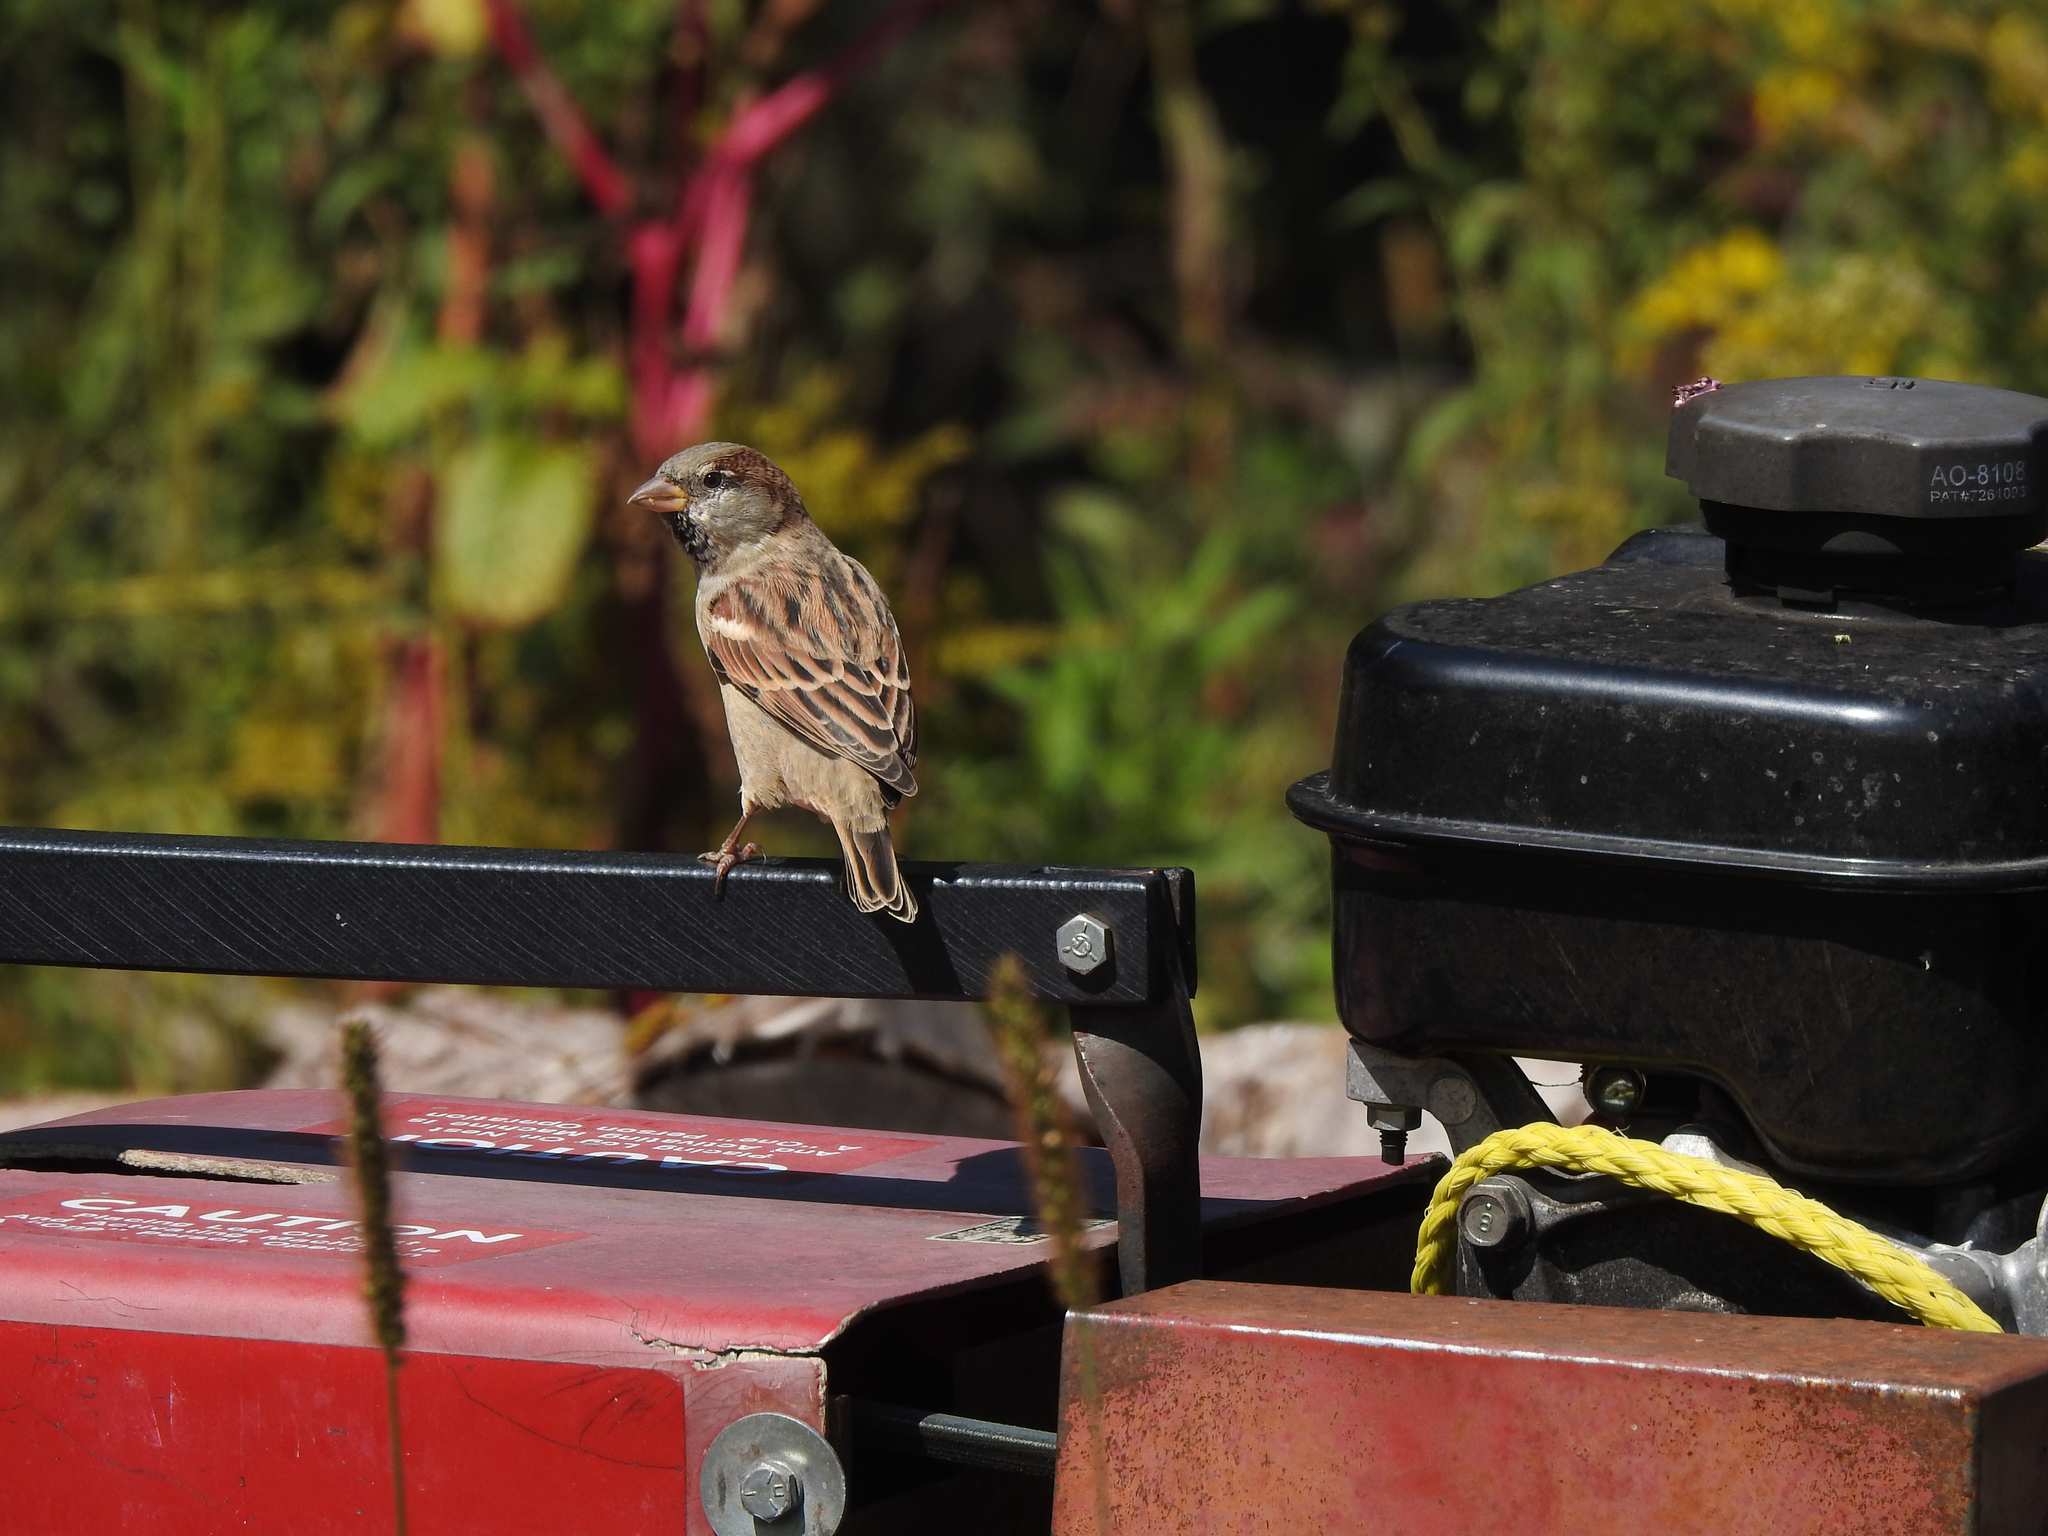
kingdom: Animalia
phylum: Chordata
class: Aves
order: Passeriformes
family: Passeridae
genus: Passer
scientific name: Passer domesticus
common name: House sparrow
